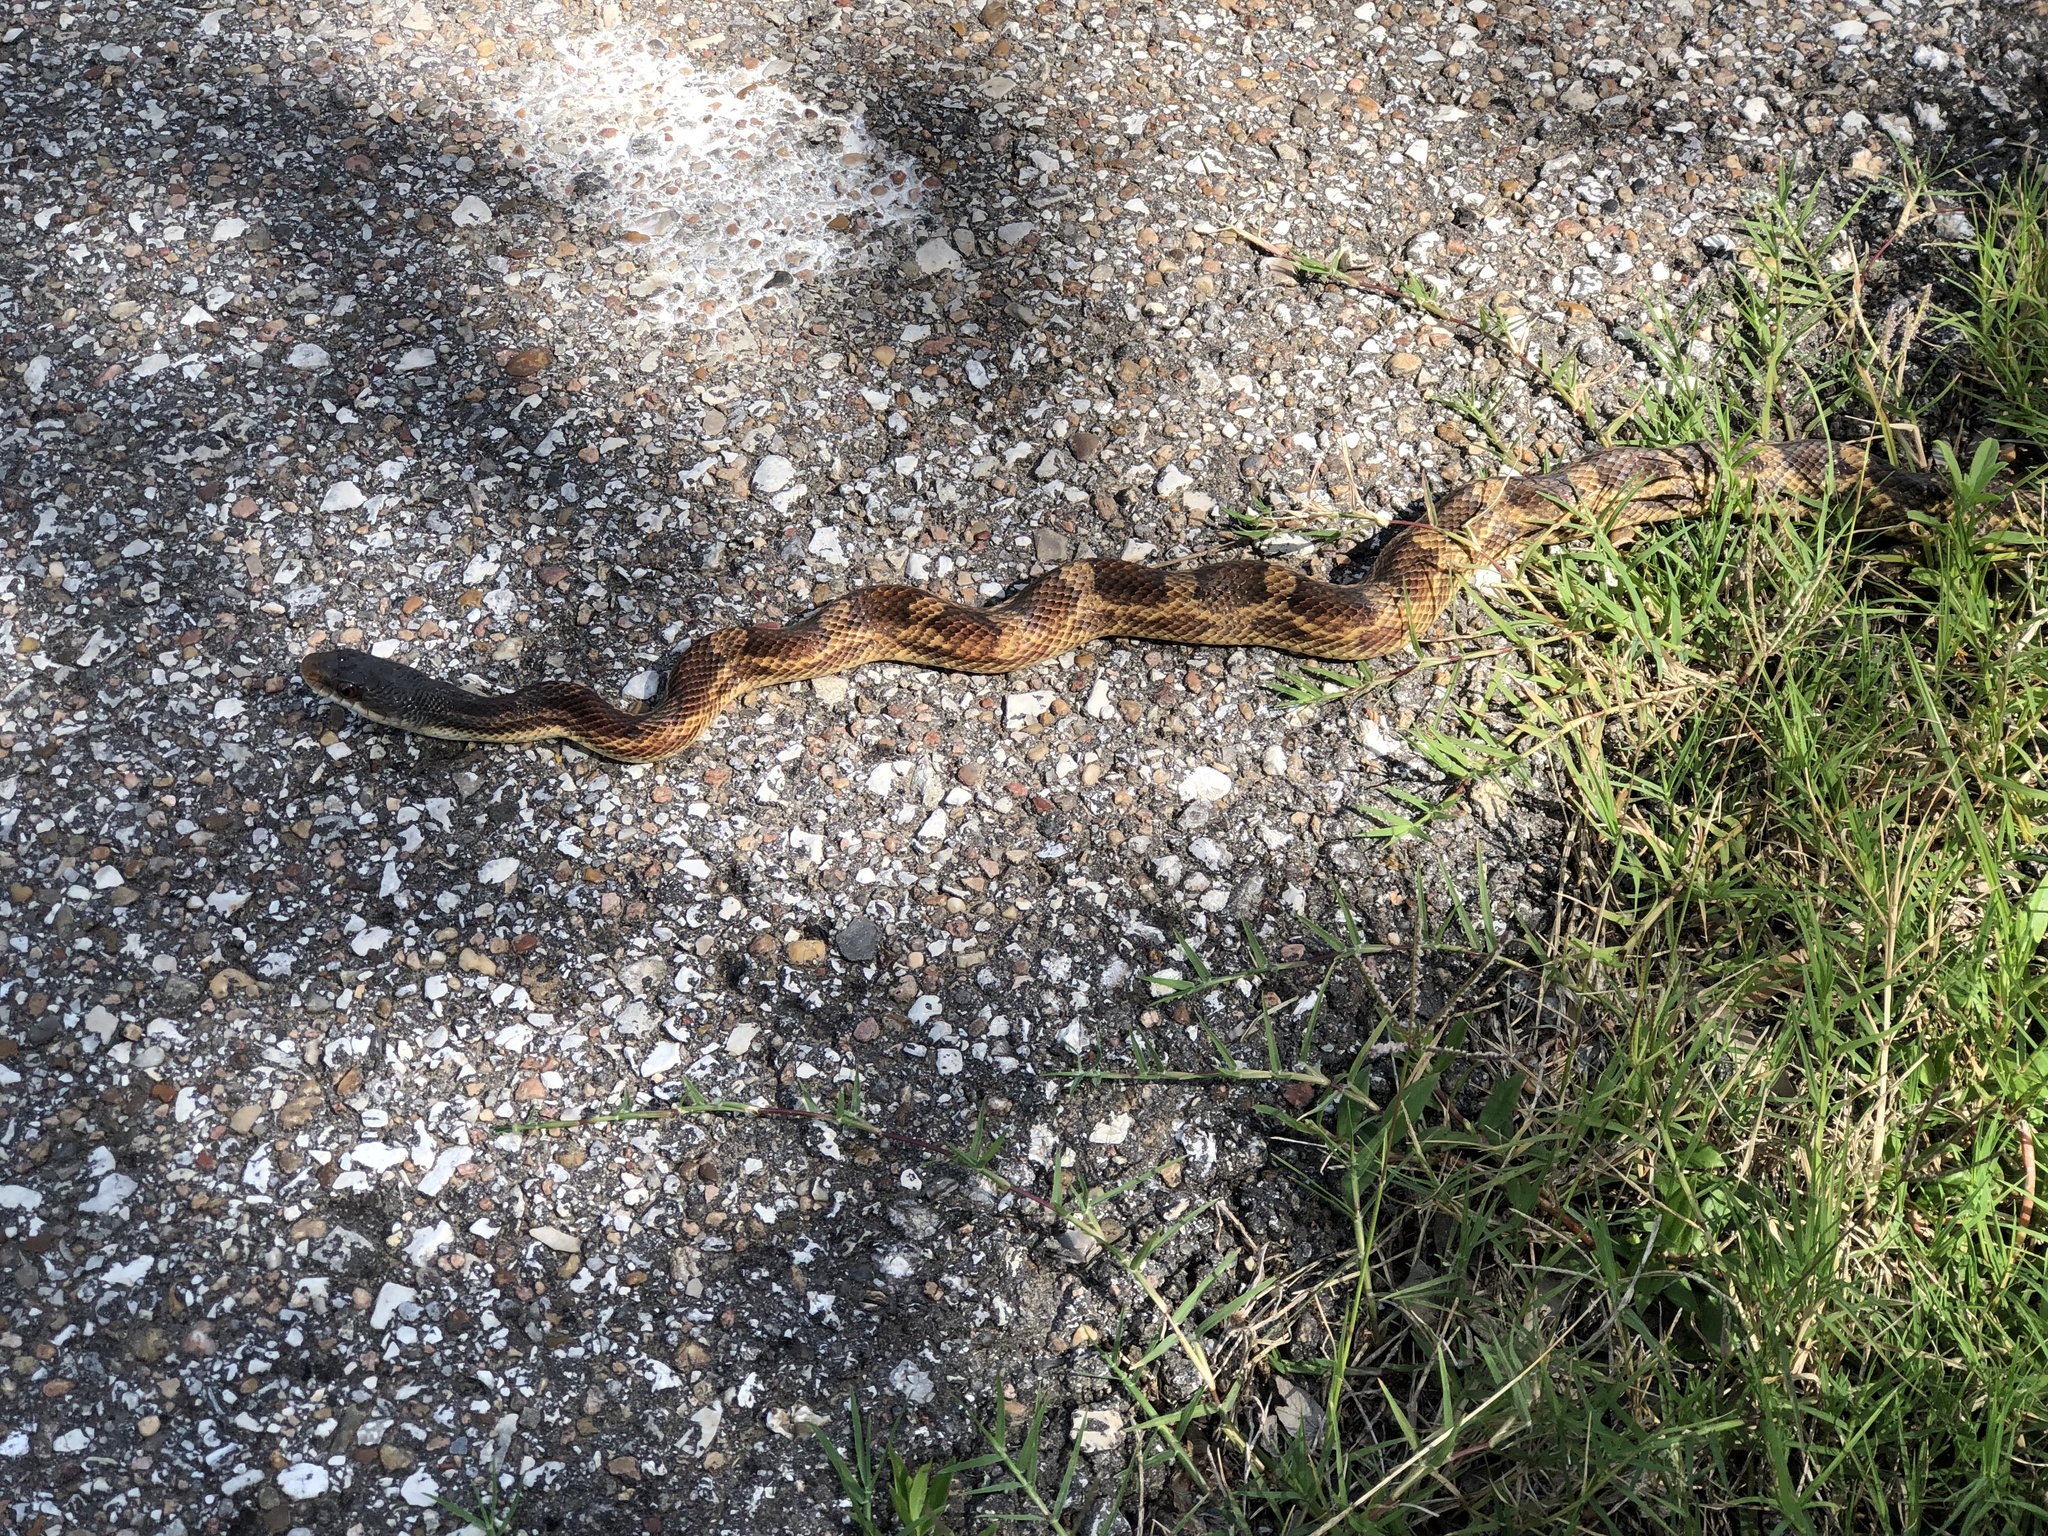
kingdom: Animalia
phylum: Chordata
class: Squamata
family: Colubridae
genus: Pantherophis
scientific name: Pantherophis obsoletus
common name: Black rat snake
